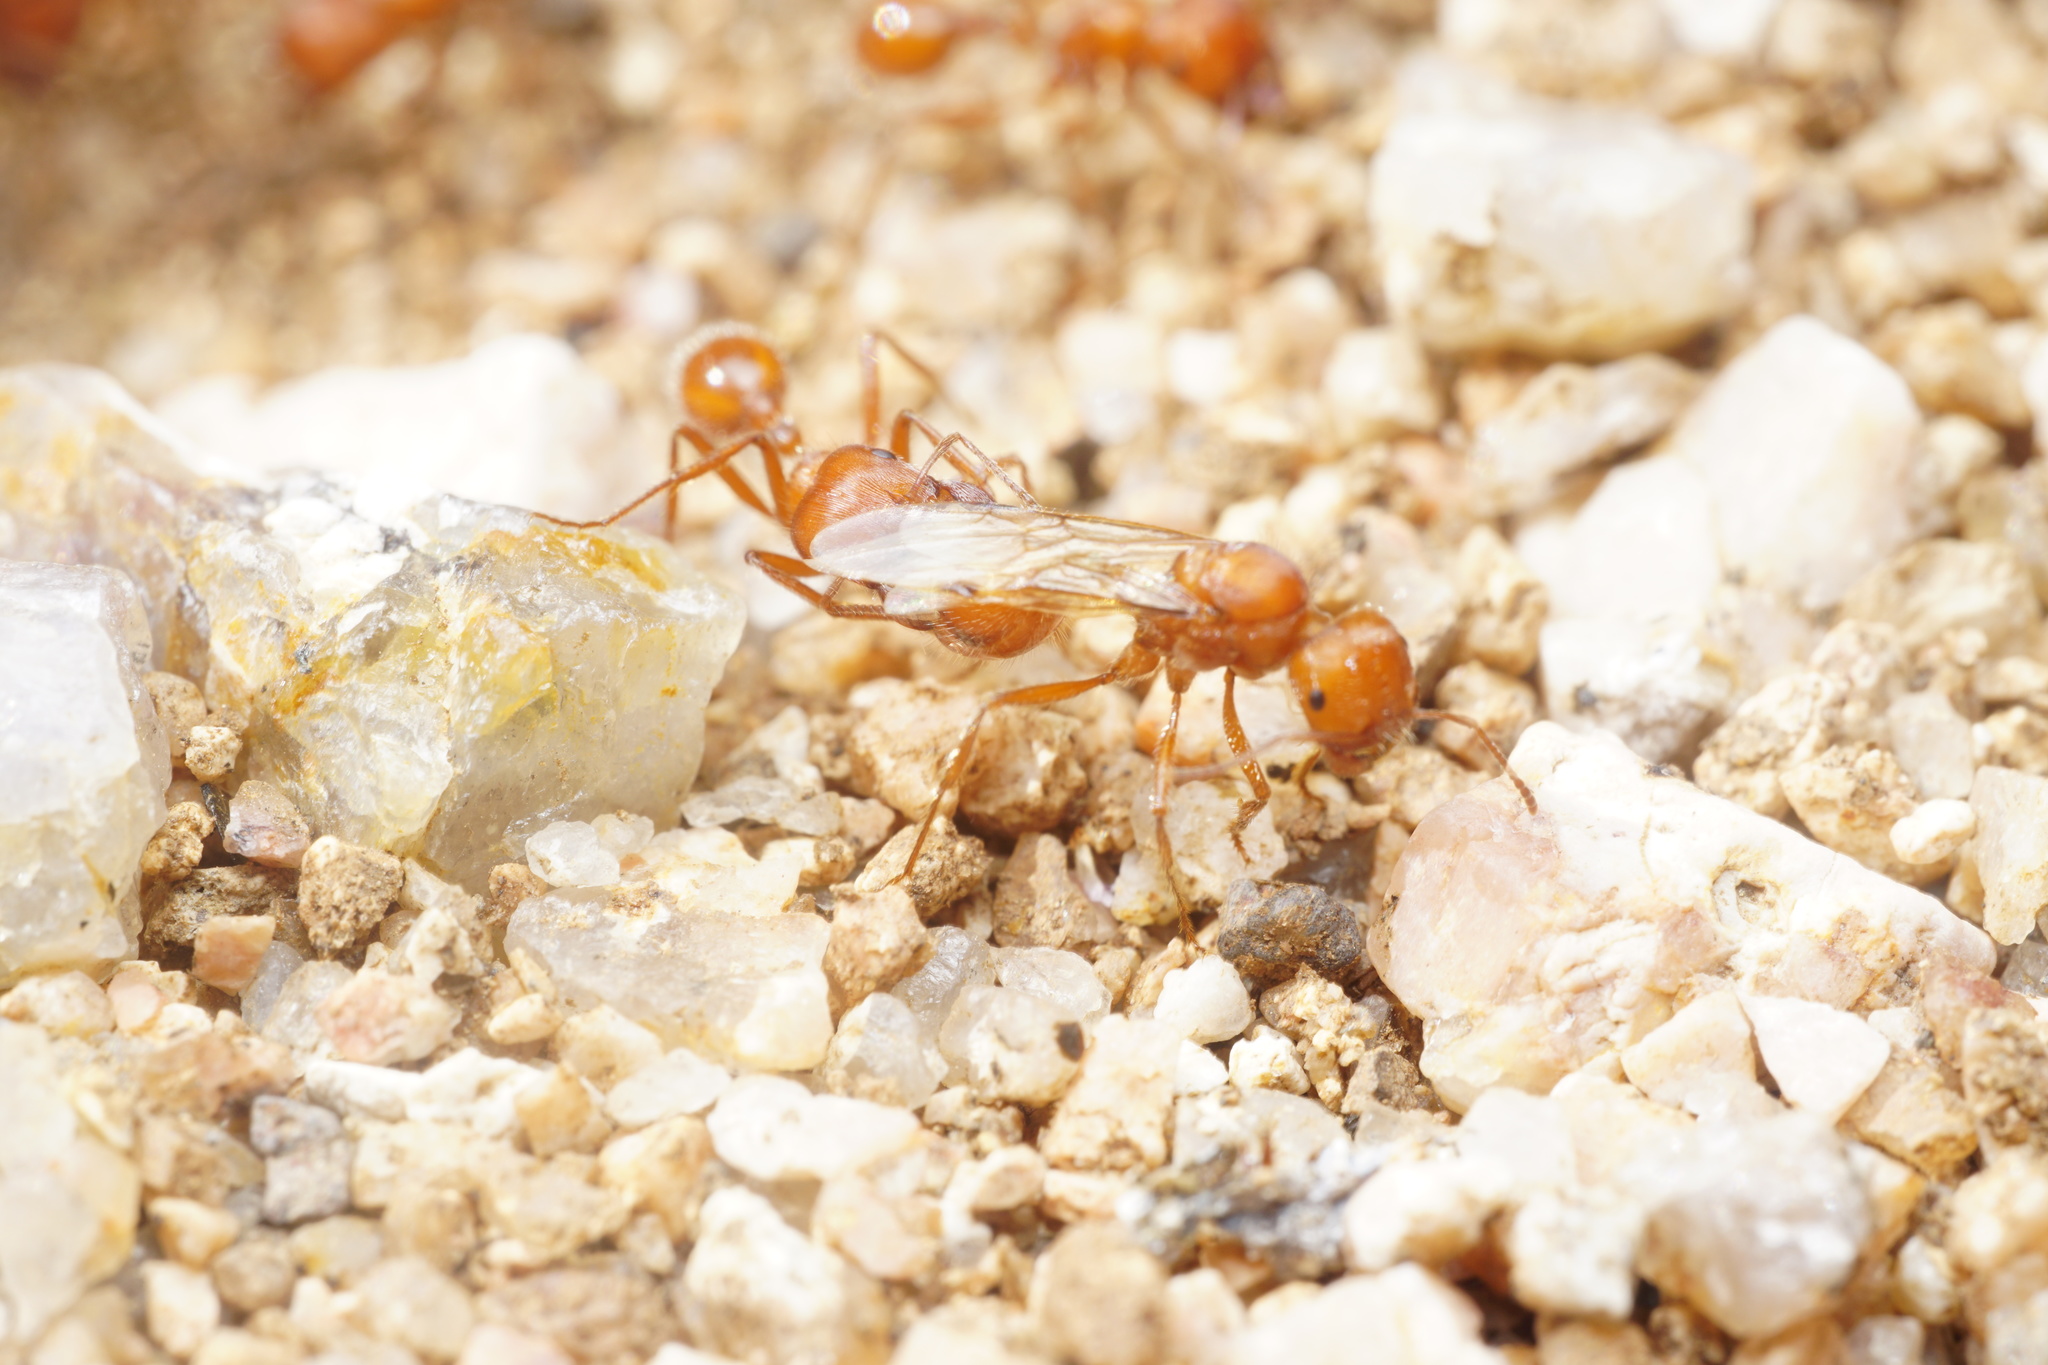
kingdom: Animalia
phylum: Arthropoda
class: Insecta
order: Hymenoptera
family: Formicidae
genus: Pogonomyrmex
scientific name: Pogonomyrmex maricopa
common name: Maricopa harvester ant
